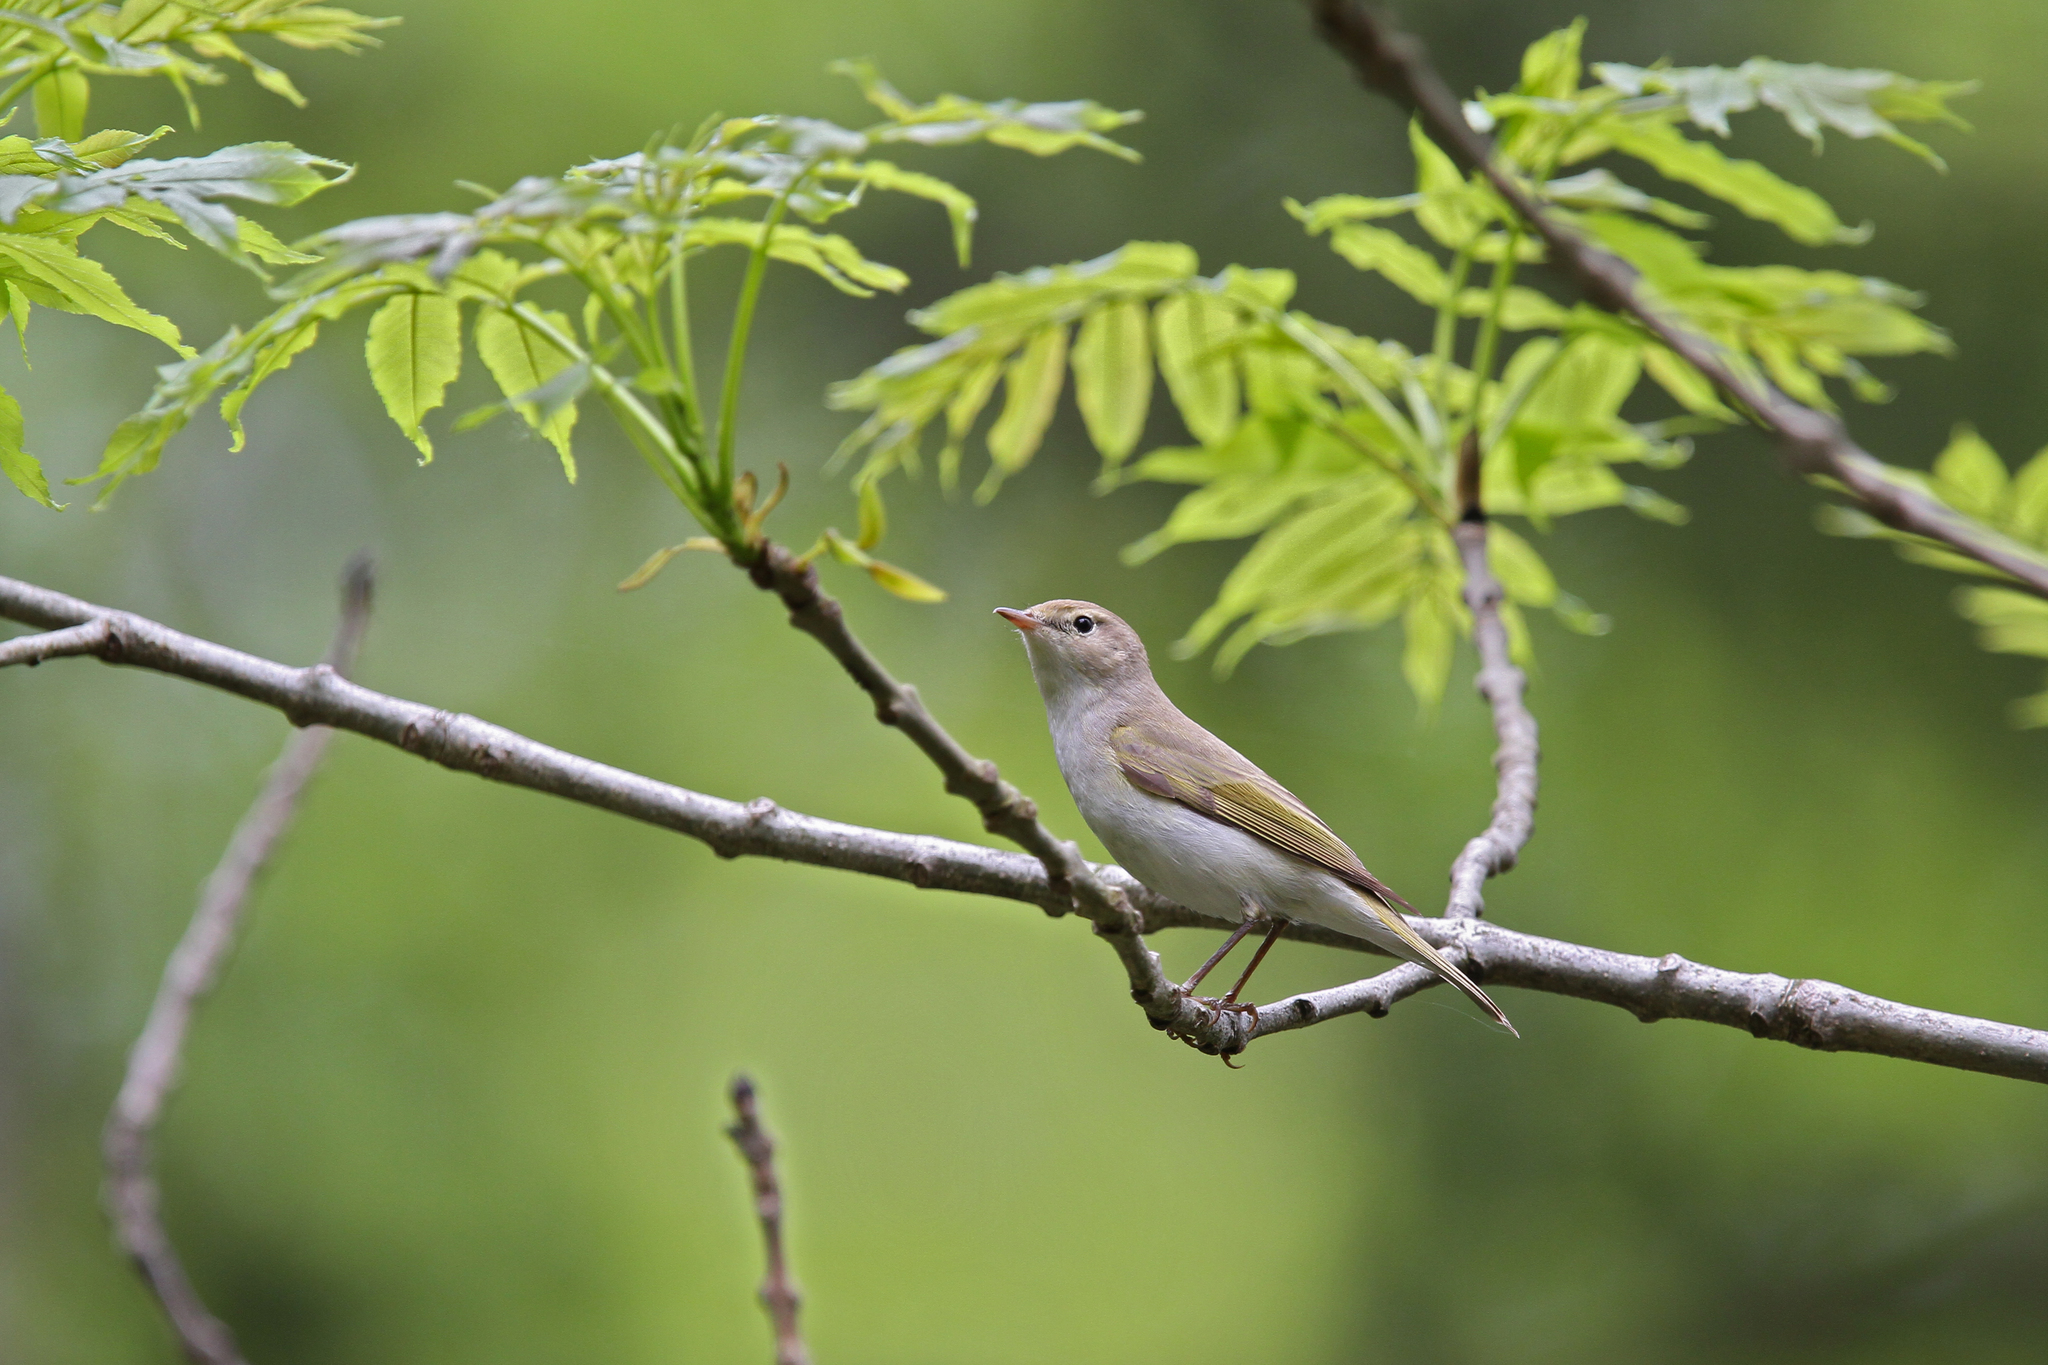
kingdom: Animalia
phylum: Chordata
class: Aves
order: Passeriformes
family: Phylloscopidae
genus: Phylloscopus
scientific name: Phylloscopus bonelli
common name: Western bonelli's warbler
